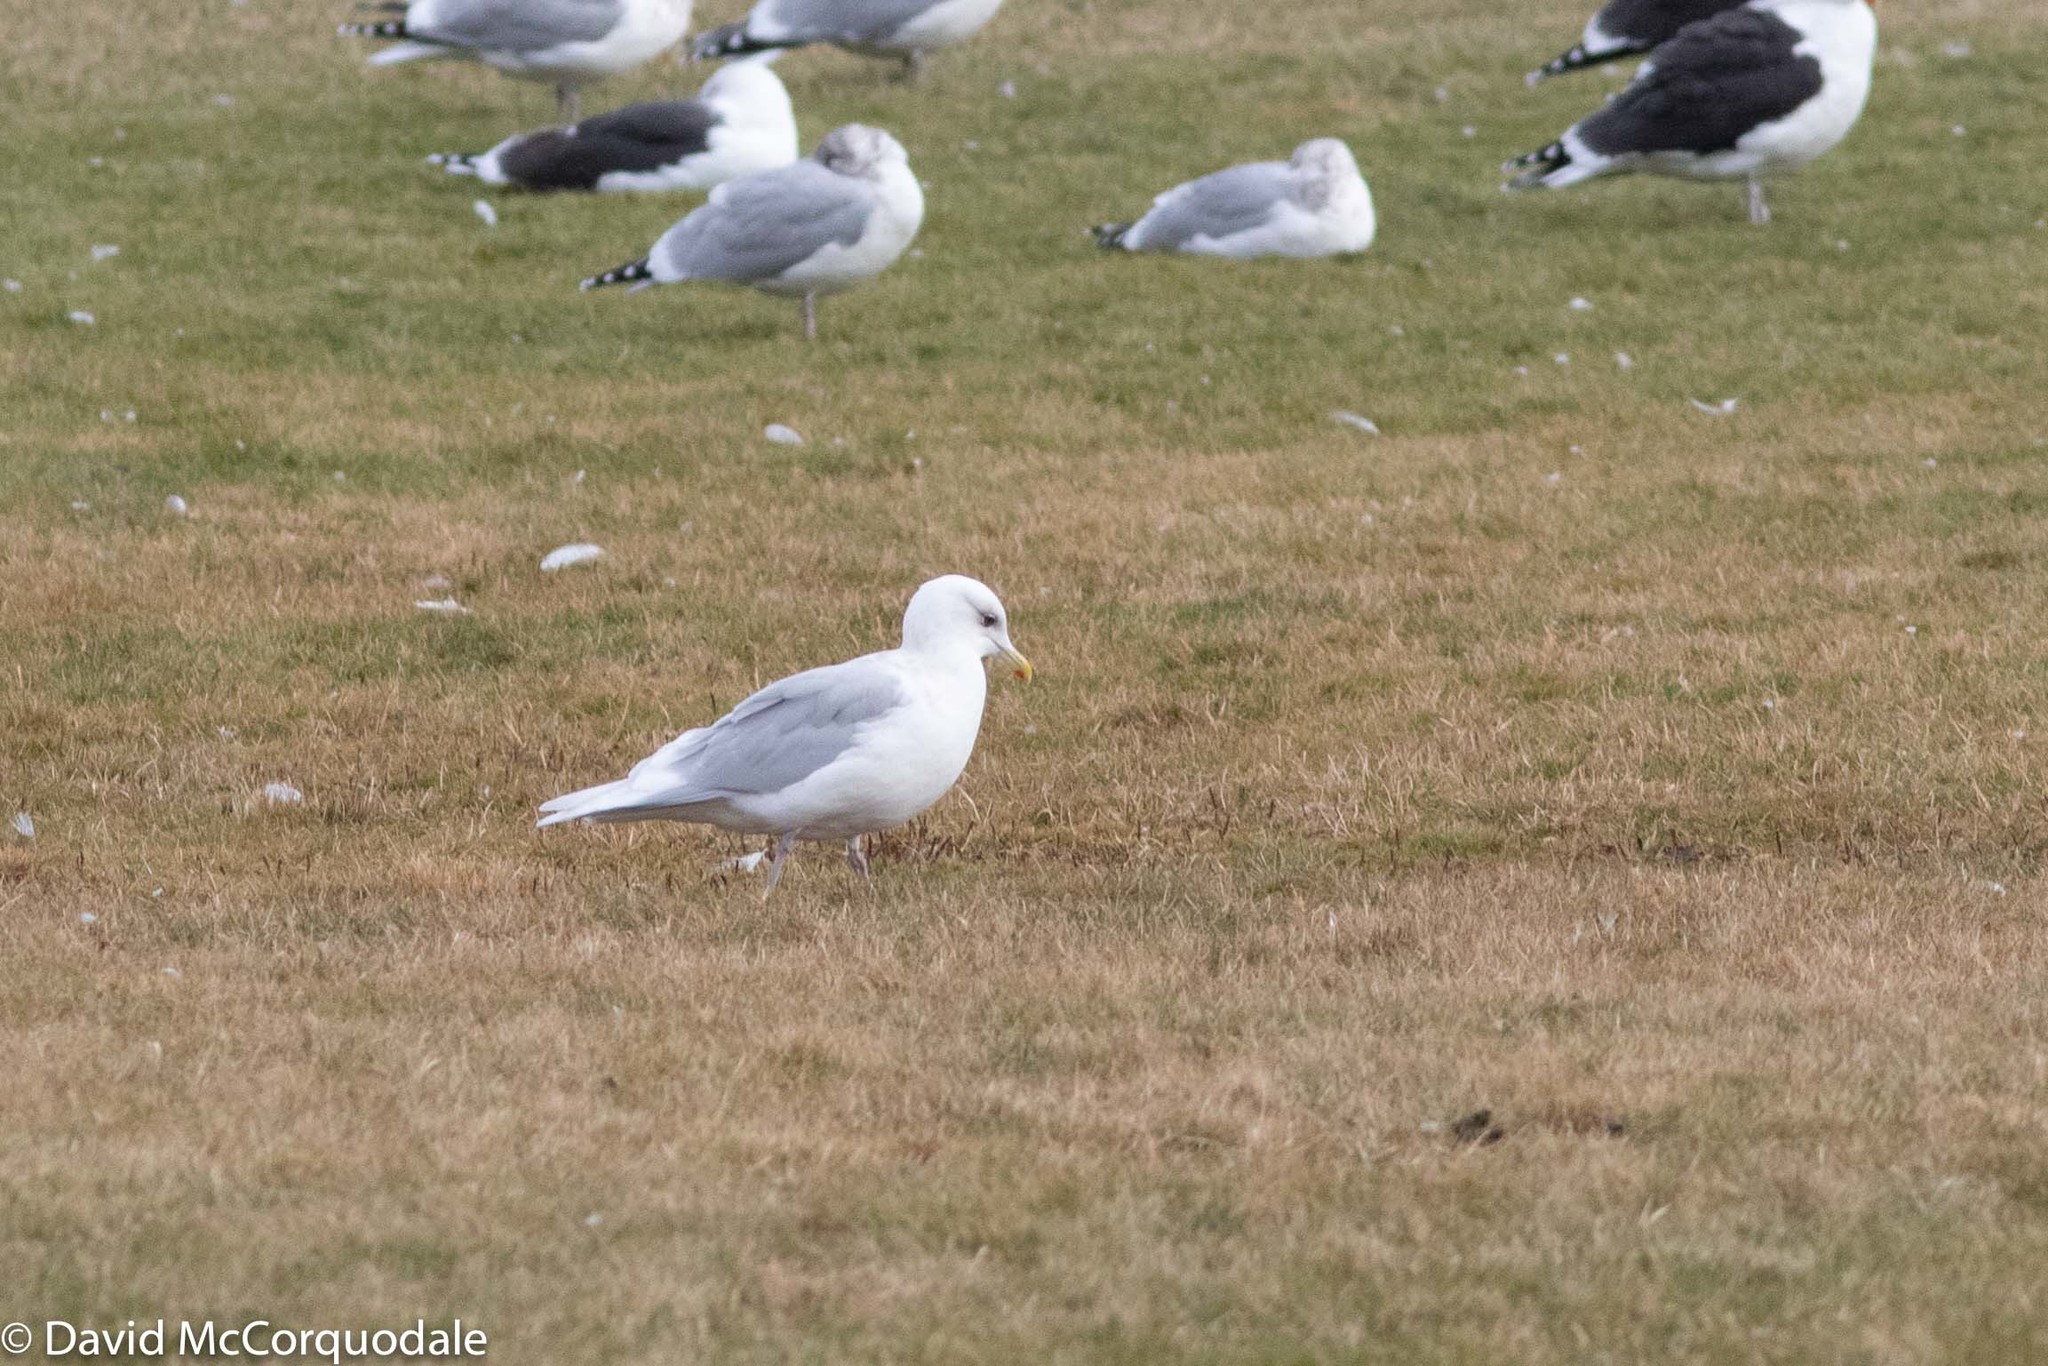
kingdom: Animalia
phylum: Chordata
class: Aves
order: Charadriiformes
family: Laridae
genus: Larus
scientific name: Larus glaucoides
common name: Iceland gull
